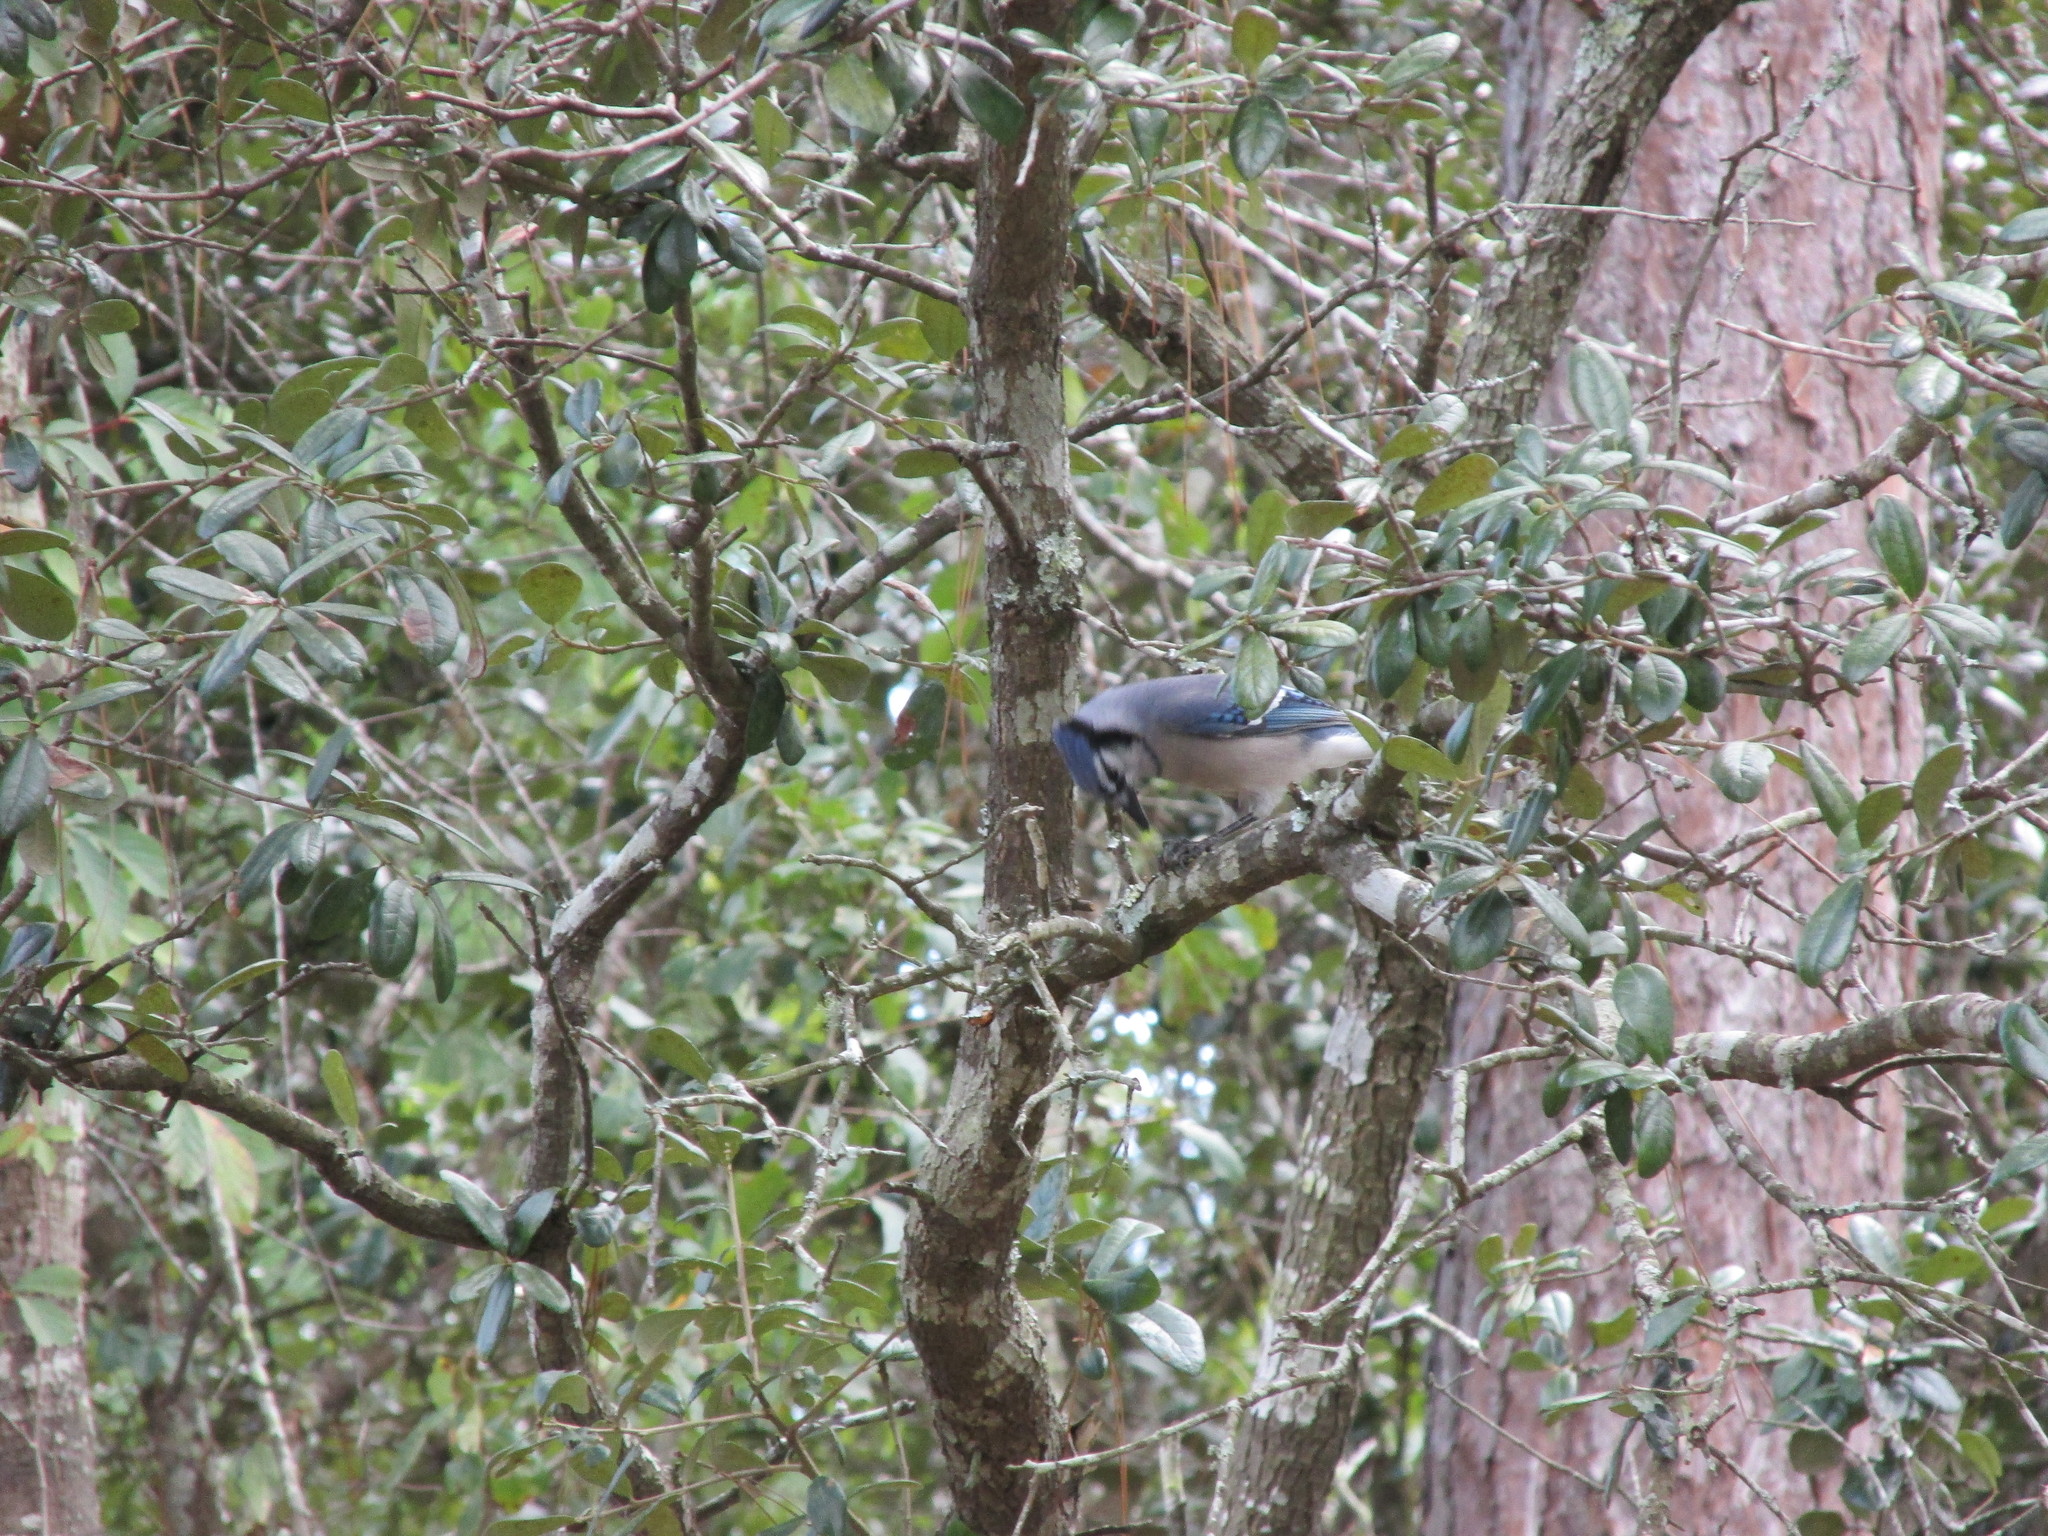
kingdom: Animalia
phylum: Chordata
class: Aves
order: Passeriformes
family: Corvidae
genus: Cyanocitta
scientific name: Cyanocitta cristata
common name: Blue jay
